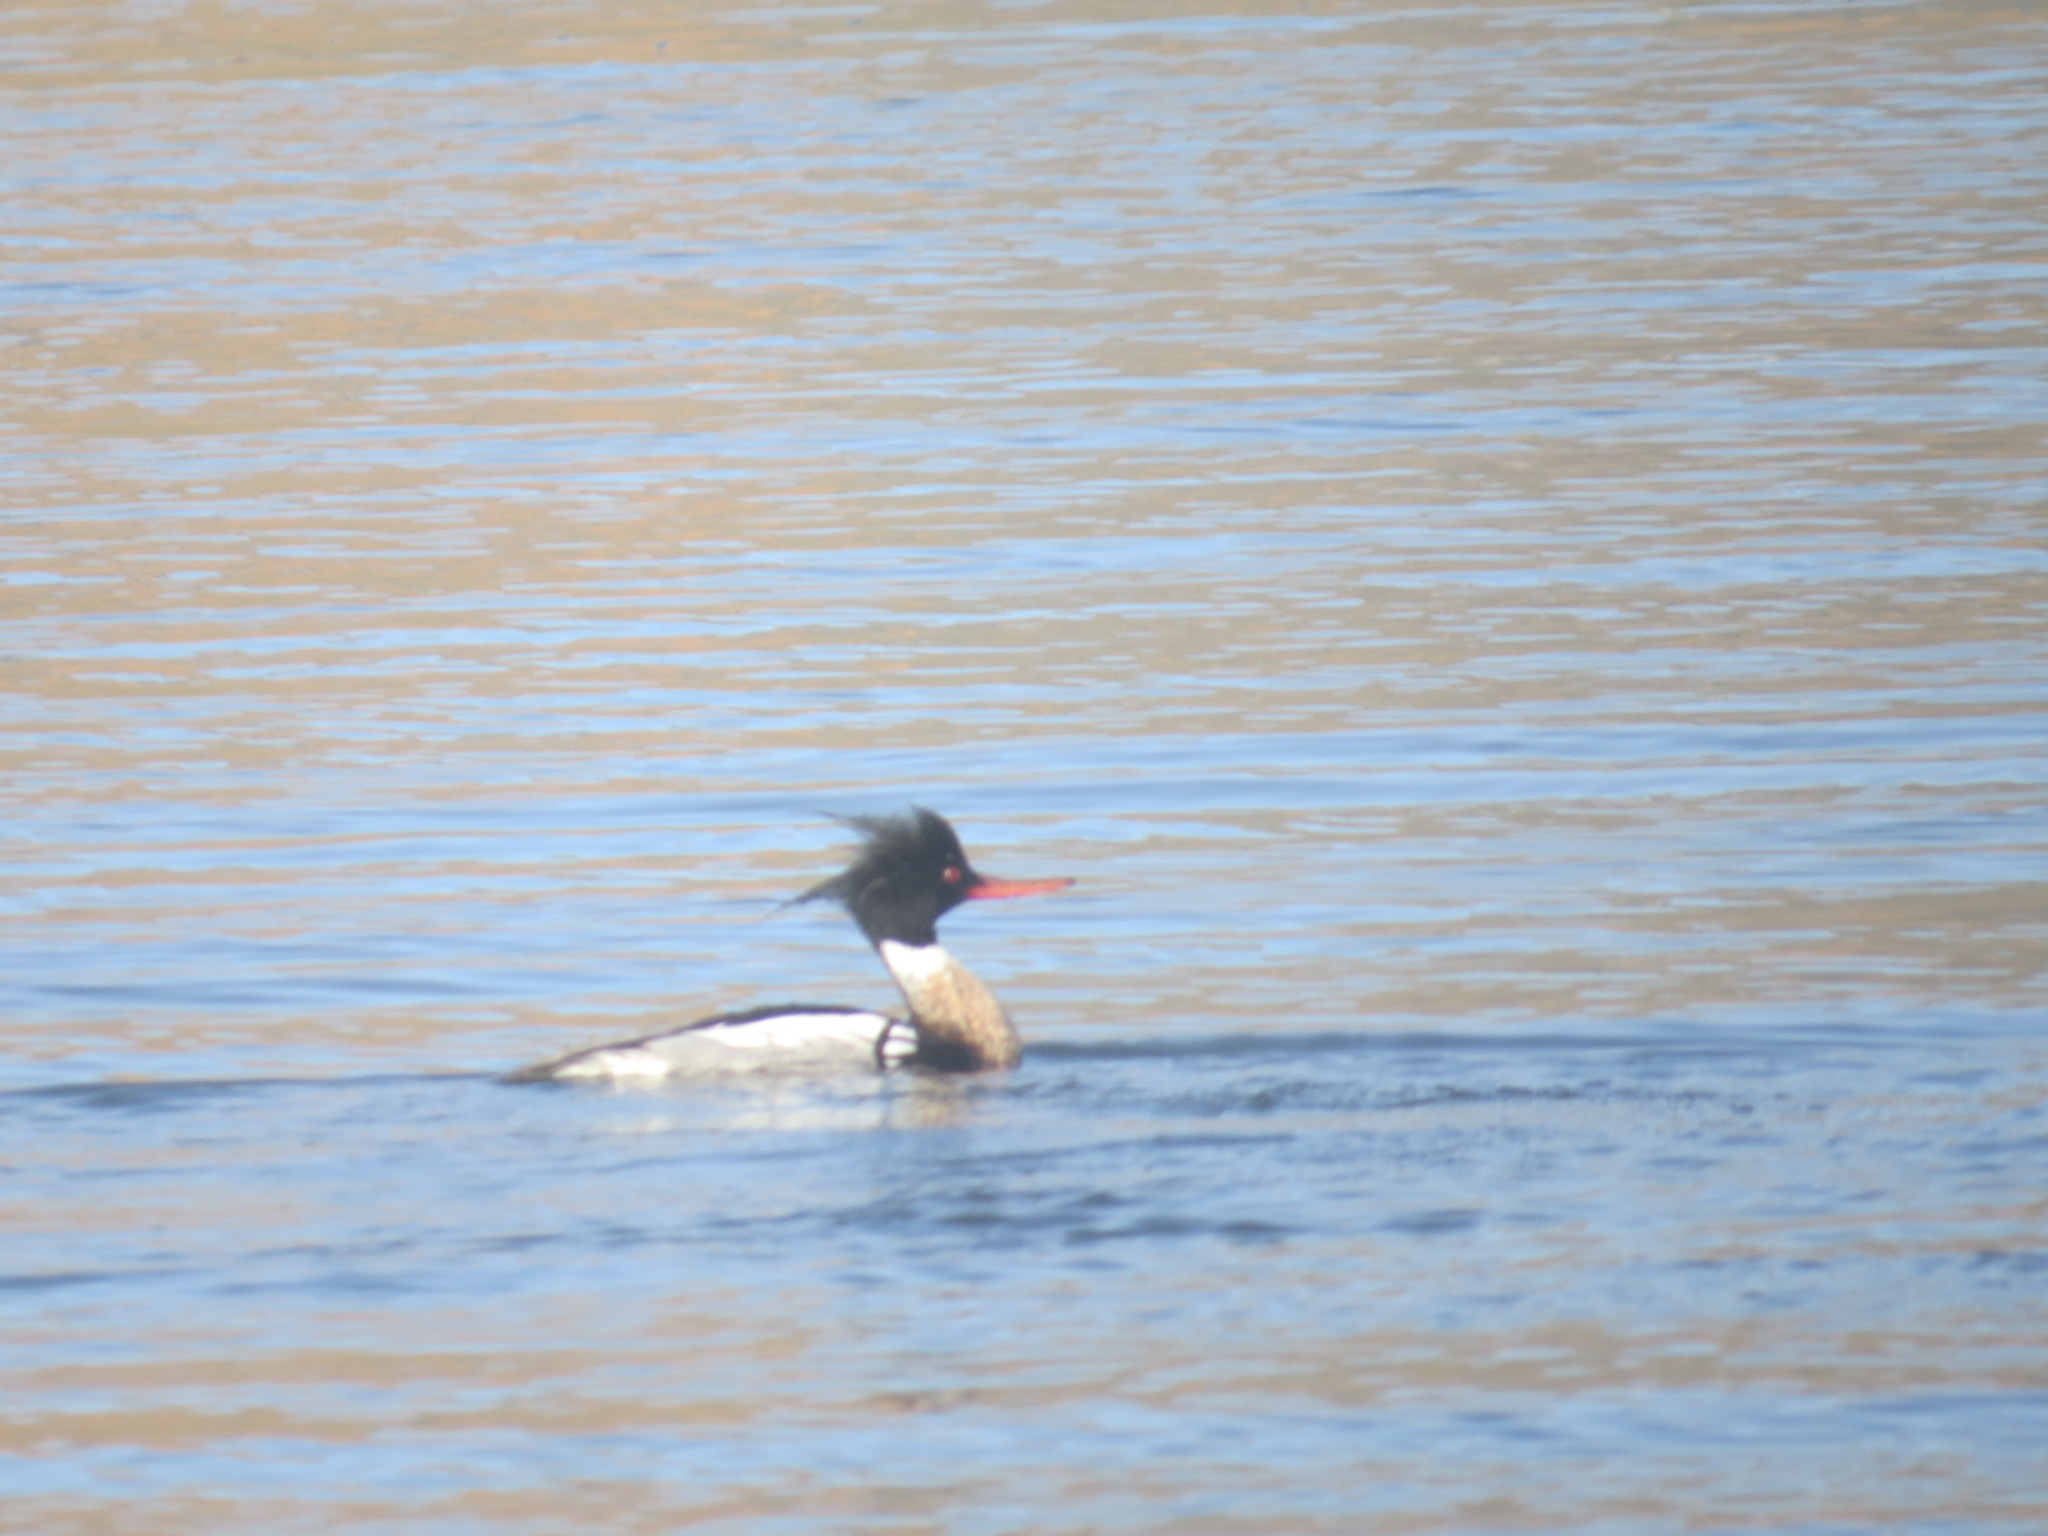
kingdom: Animalia
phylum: Chordata
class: Aves
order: Anseriformes
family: Anatidae
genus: Mergus
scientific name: Mergus serrator
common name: Red-breasted merganser
